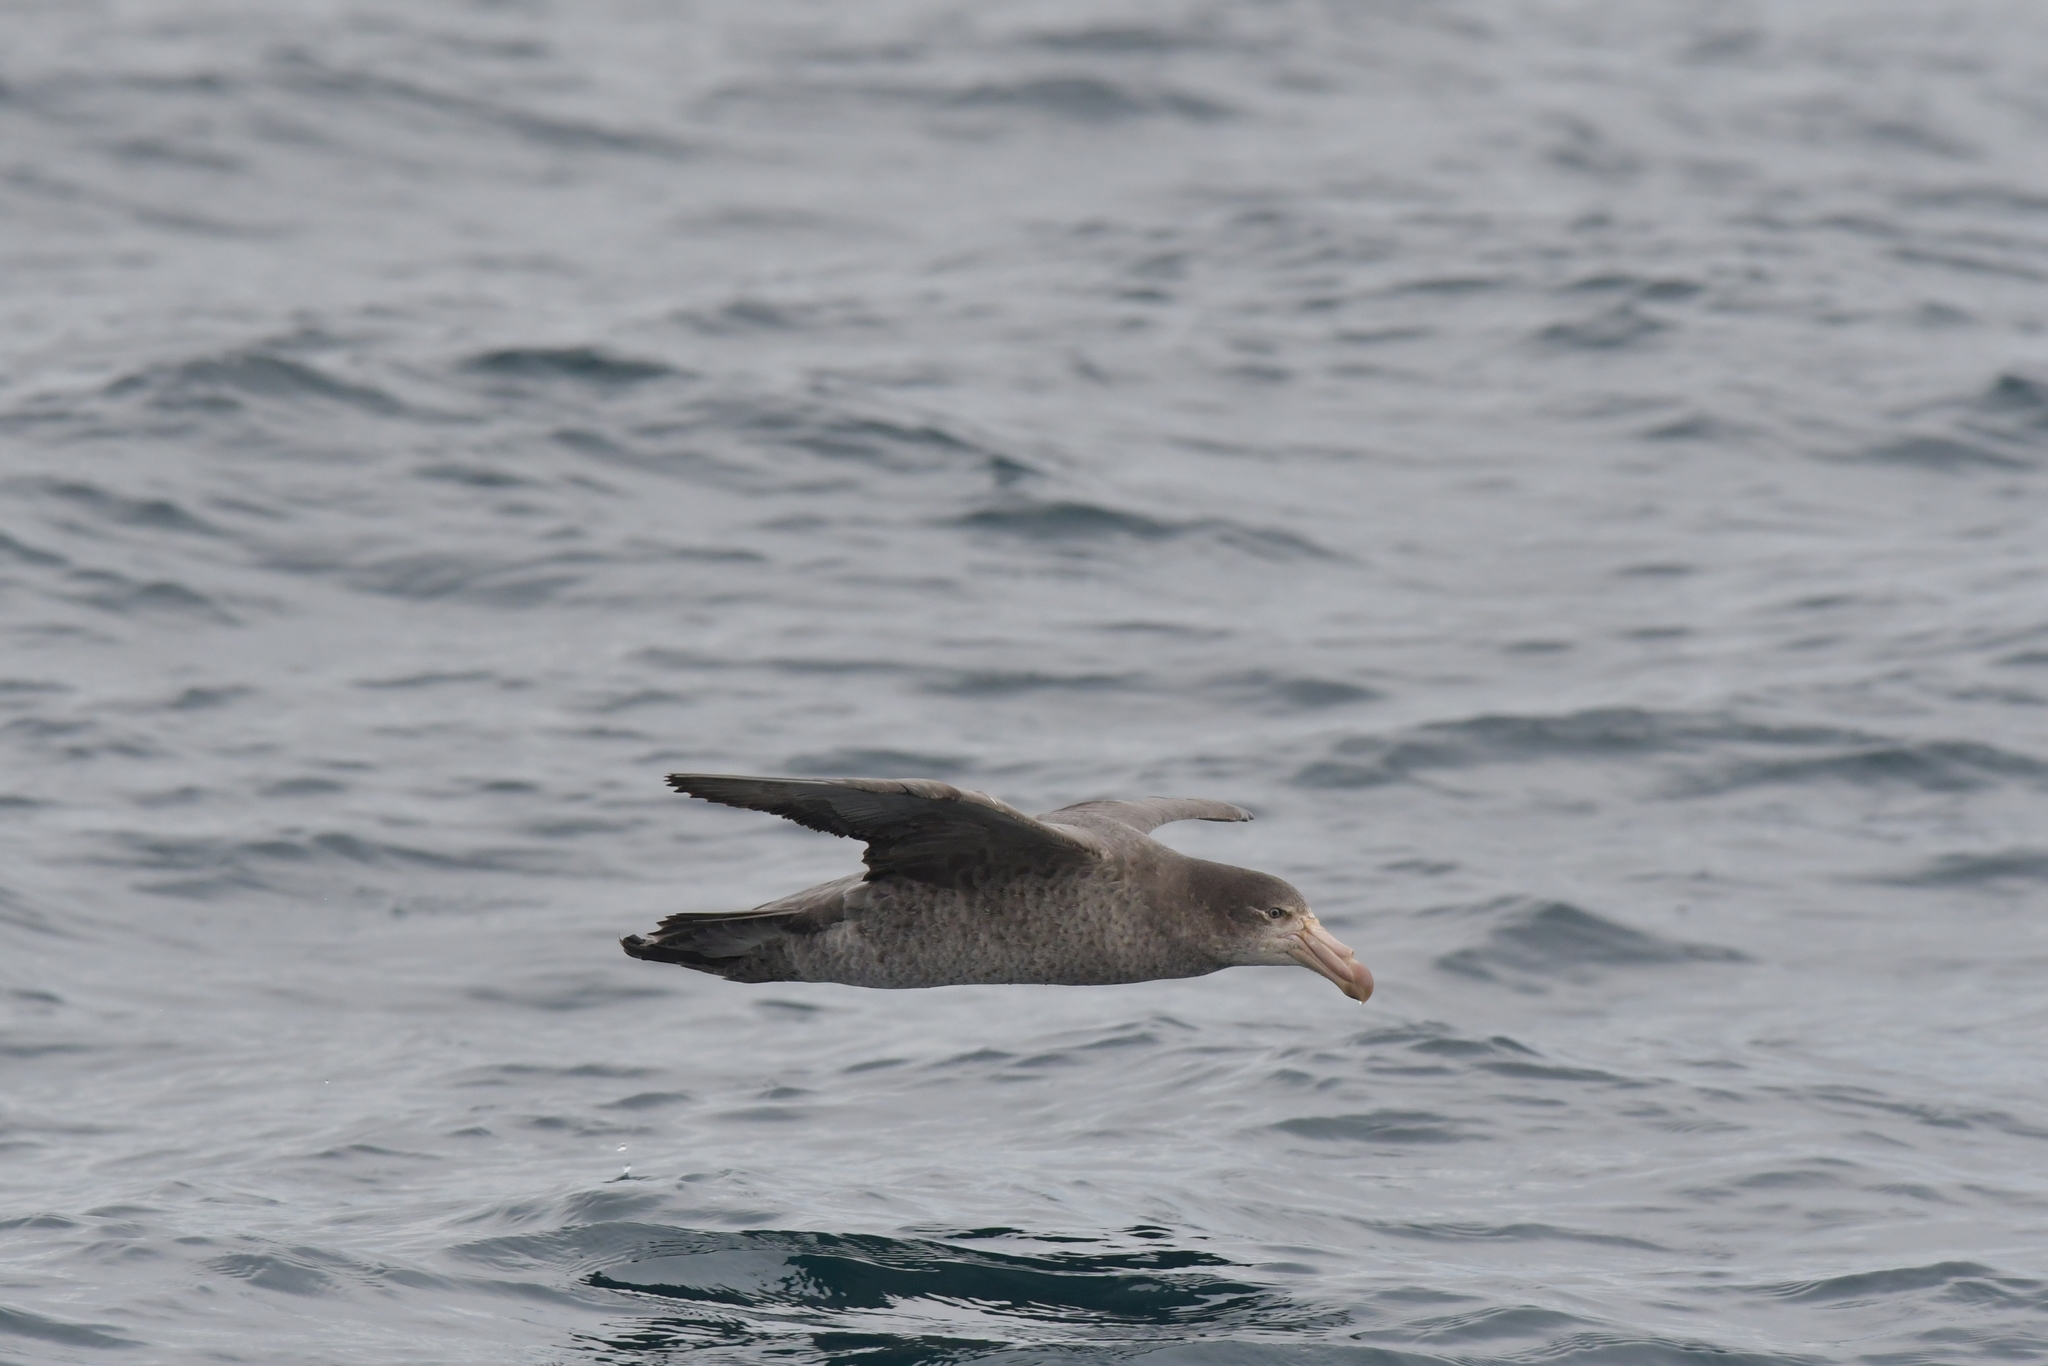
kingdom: Animalia
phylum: Chordata
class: Aves
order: Procellariiformes
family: Procellariidae
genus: Macronectes
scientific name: Macronectes halli
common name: Northern giant petrel
